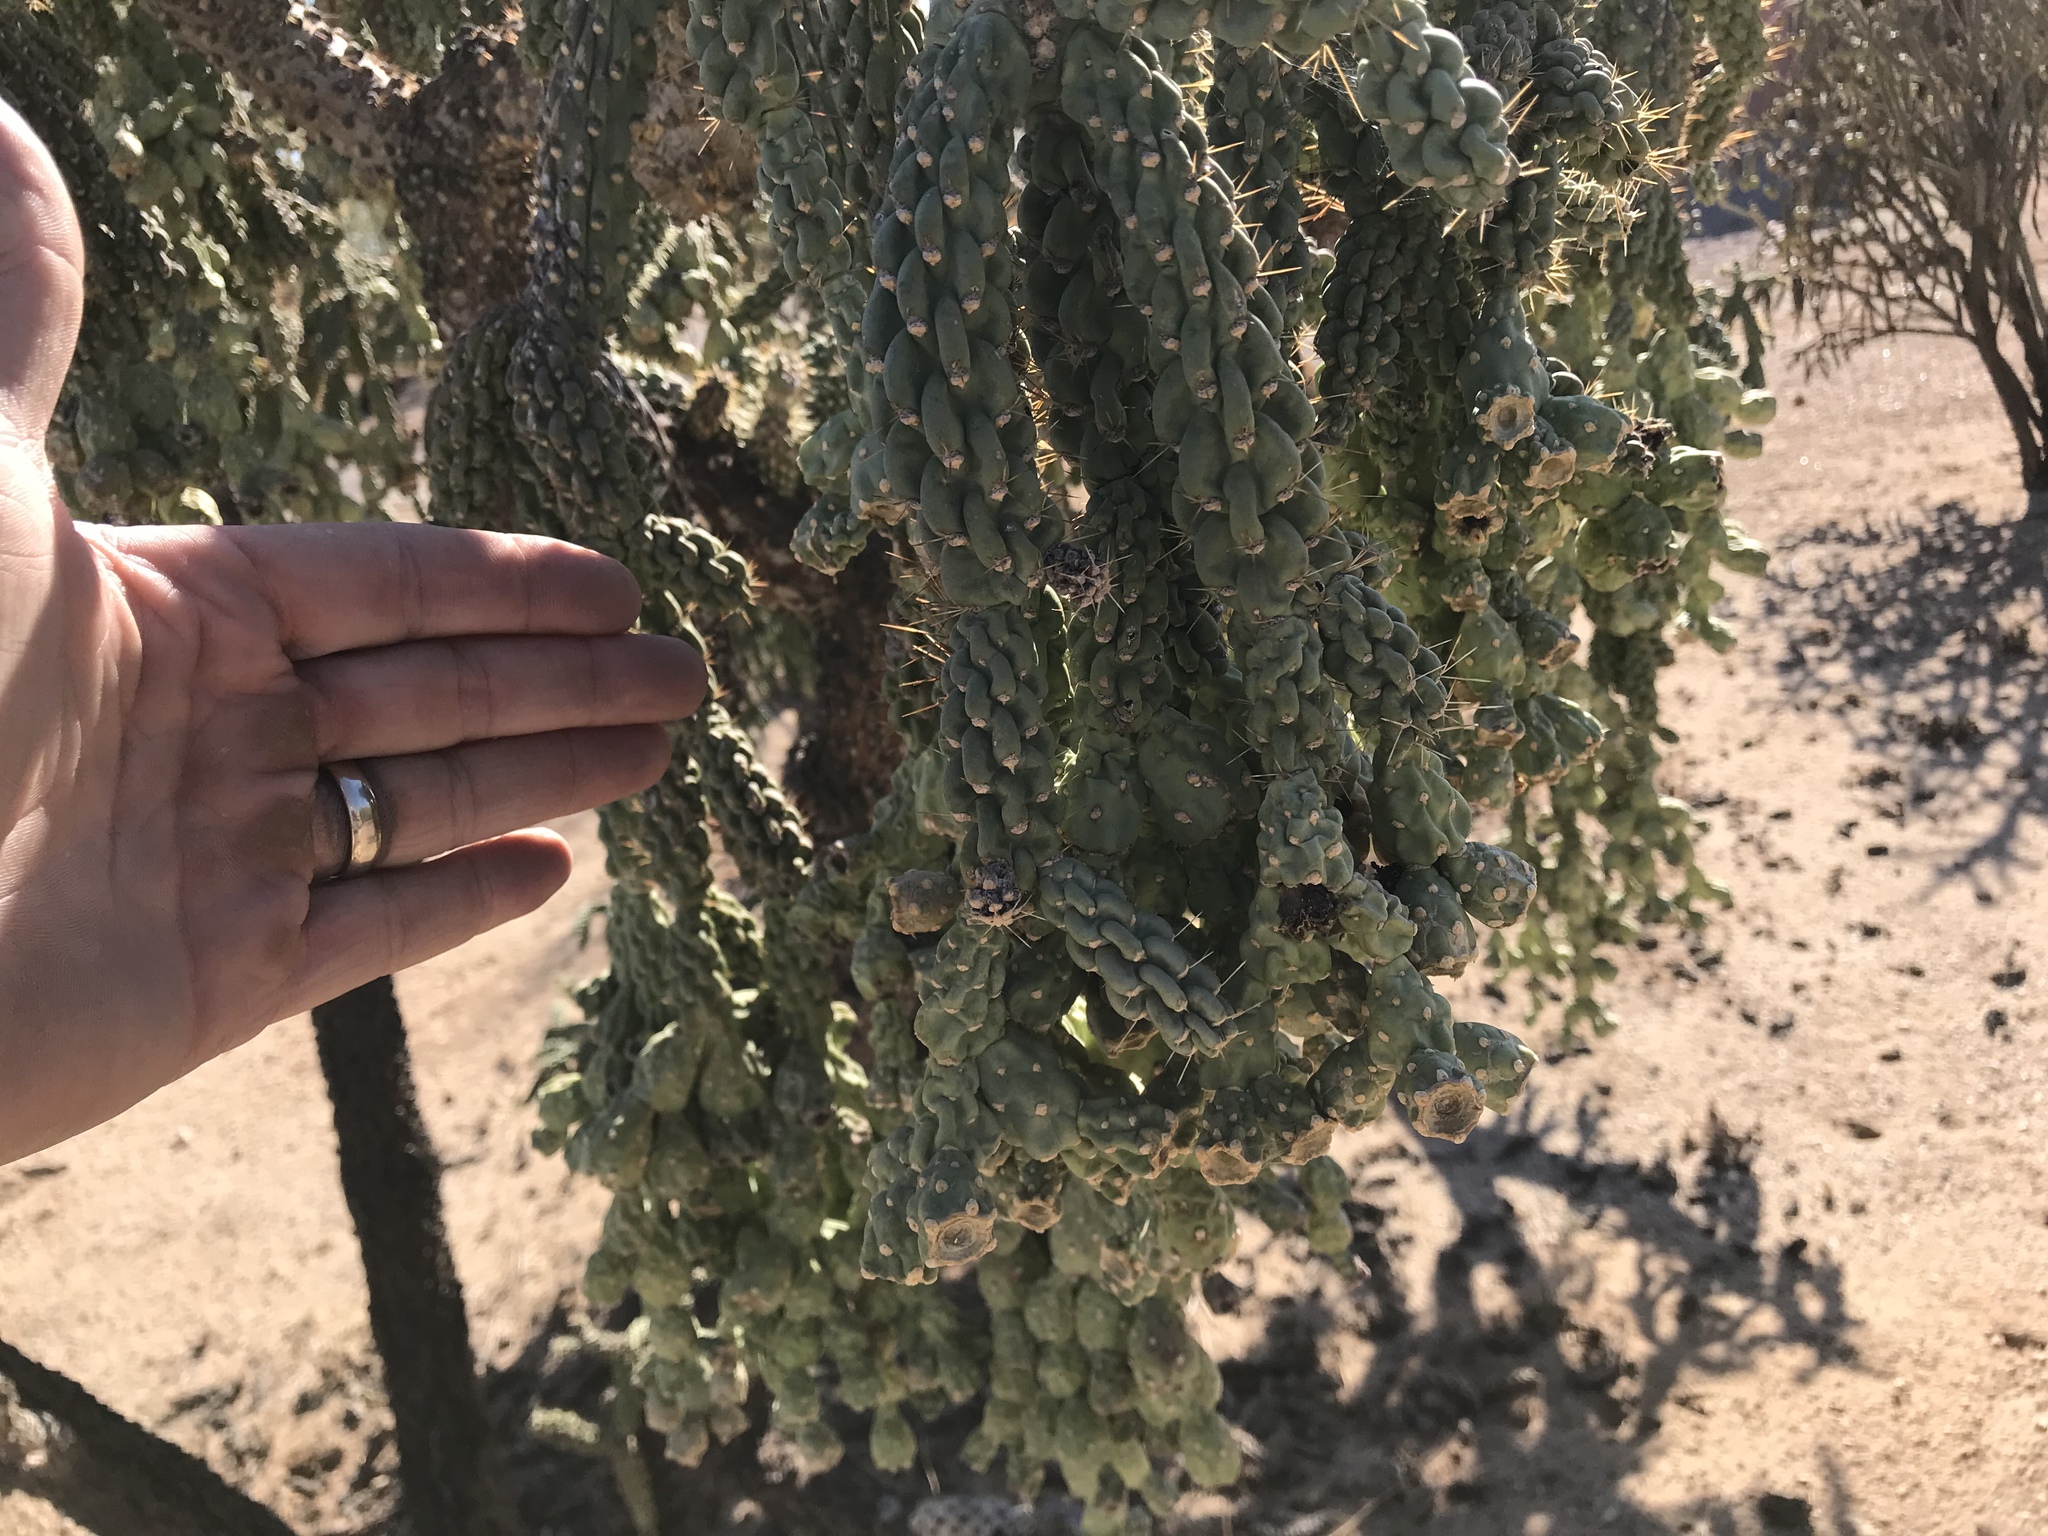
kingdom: Plantae
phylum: Tracheophyta
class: Magnoliopsida
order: Caryophyllales
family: Cactaceae
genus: Cylindropuntia
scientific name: Cylindropuntia fulgida
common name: Jumping cholla
